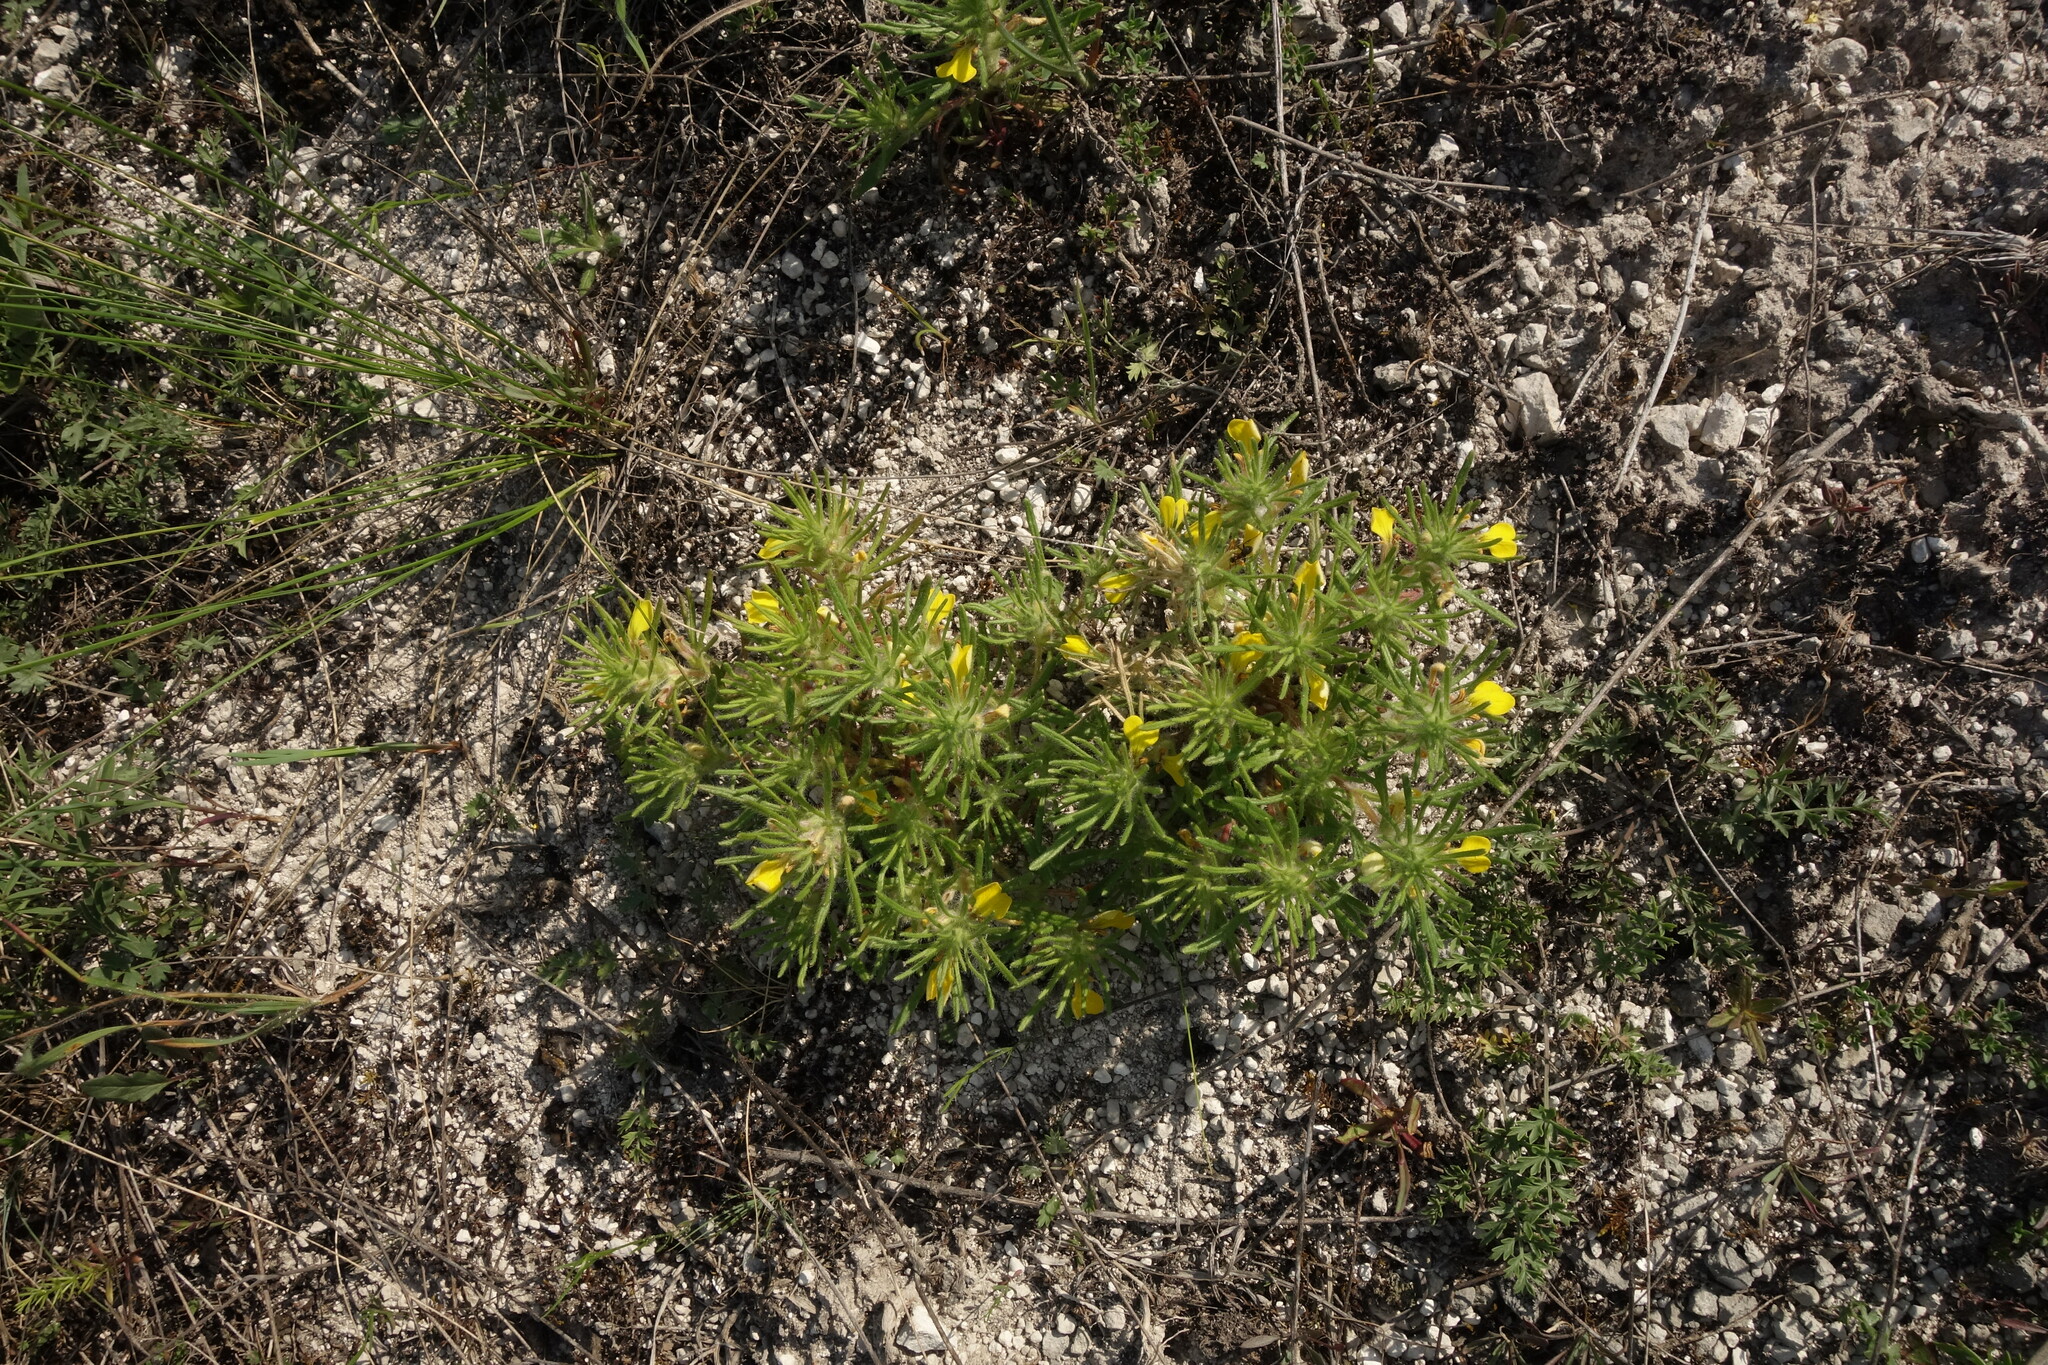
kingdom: Plantae
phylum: Tracheophyta
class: Magnoliopsida
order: Lamiales
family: Lamiaceae
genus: Ajuga
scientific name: Ajuga chamaepitys
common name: Ground-pine
